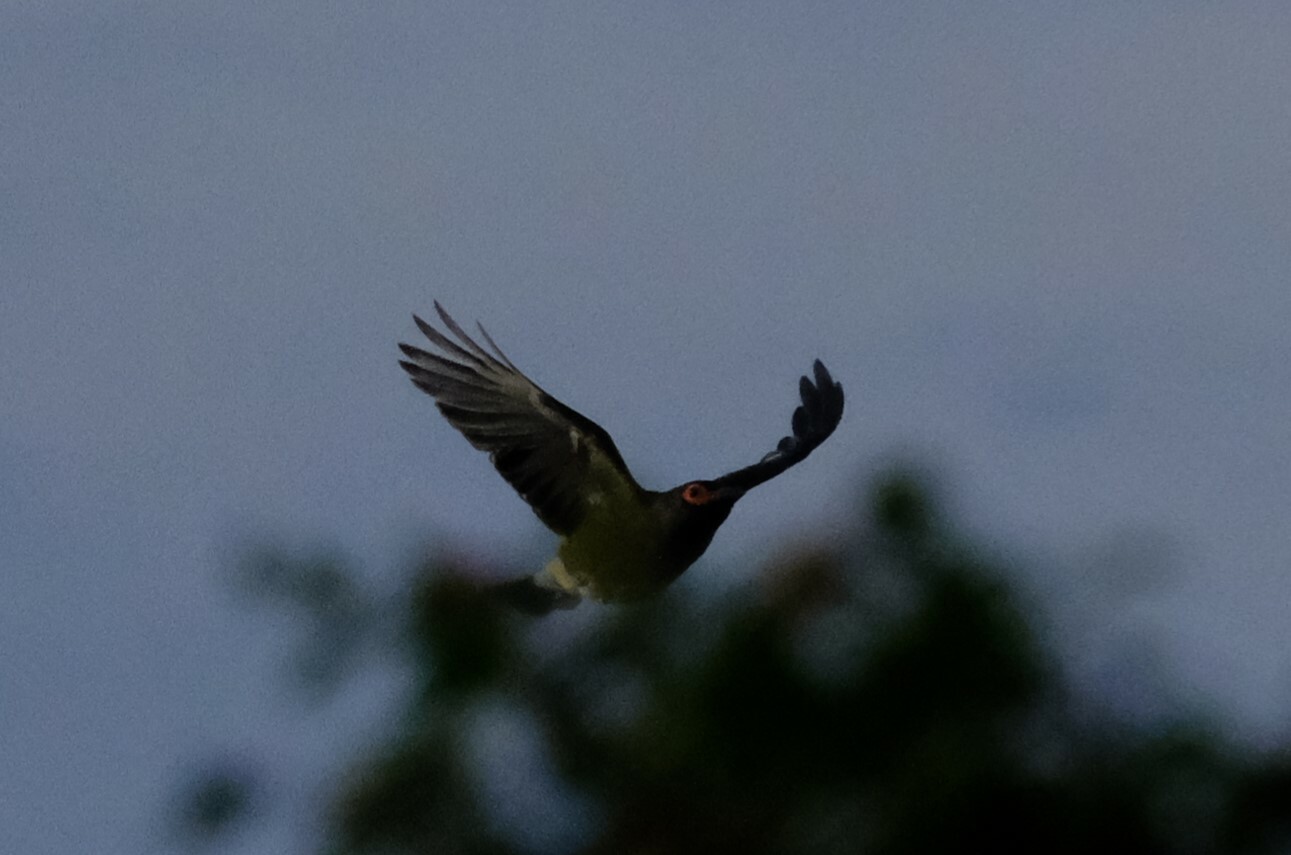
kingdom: Animalia
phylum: Chordata
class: Aves
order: Passeriformes
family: Oriolidae
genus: Sphecotheres
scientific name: Sphecotheres vieilloti
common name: Australasian figbird
